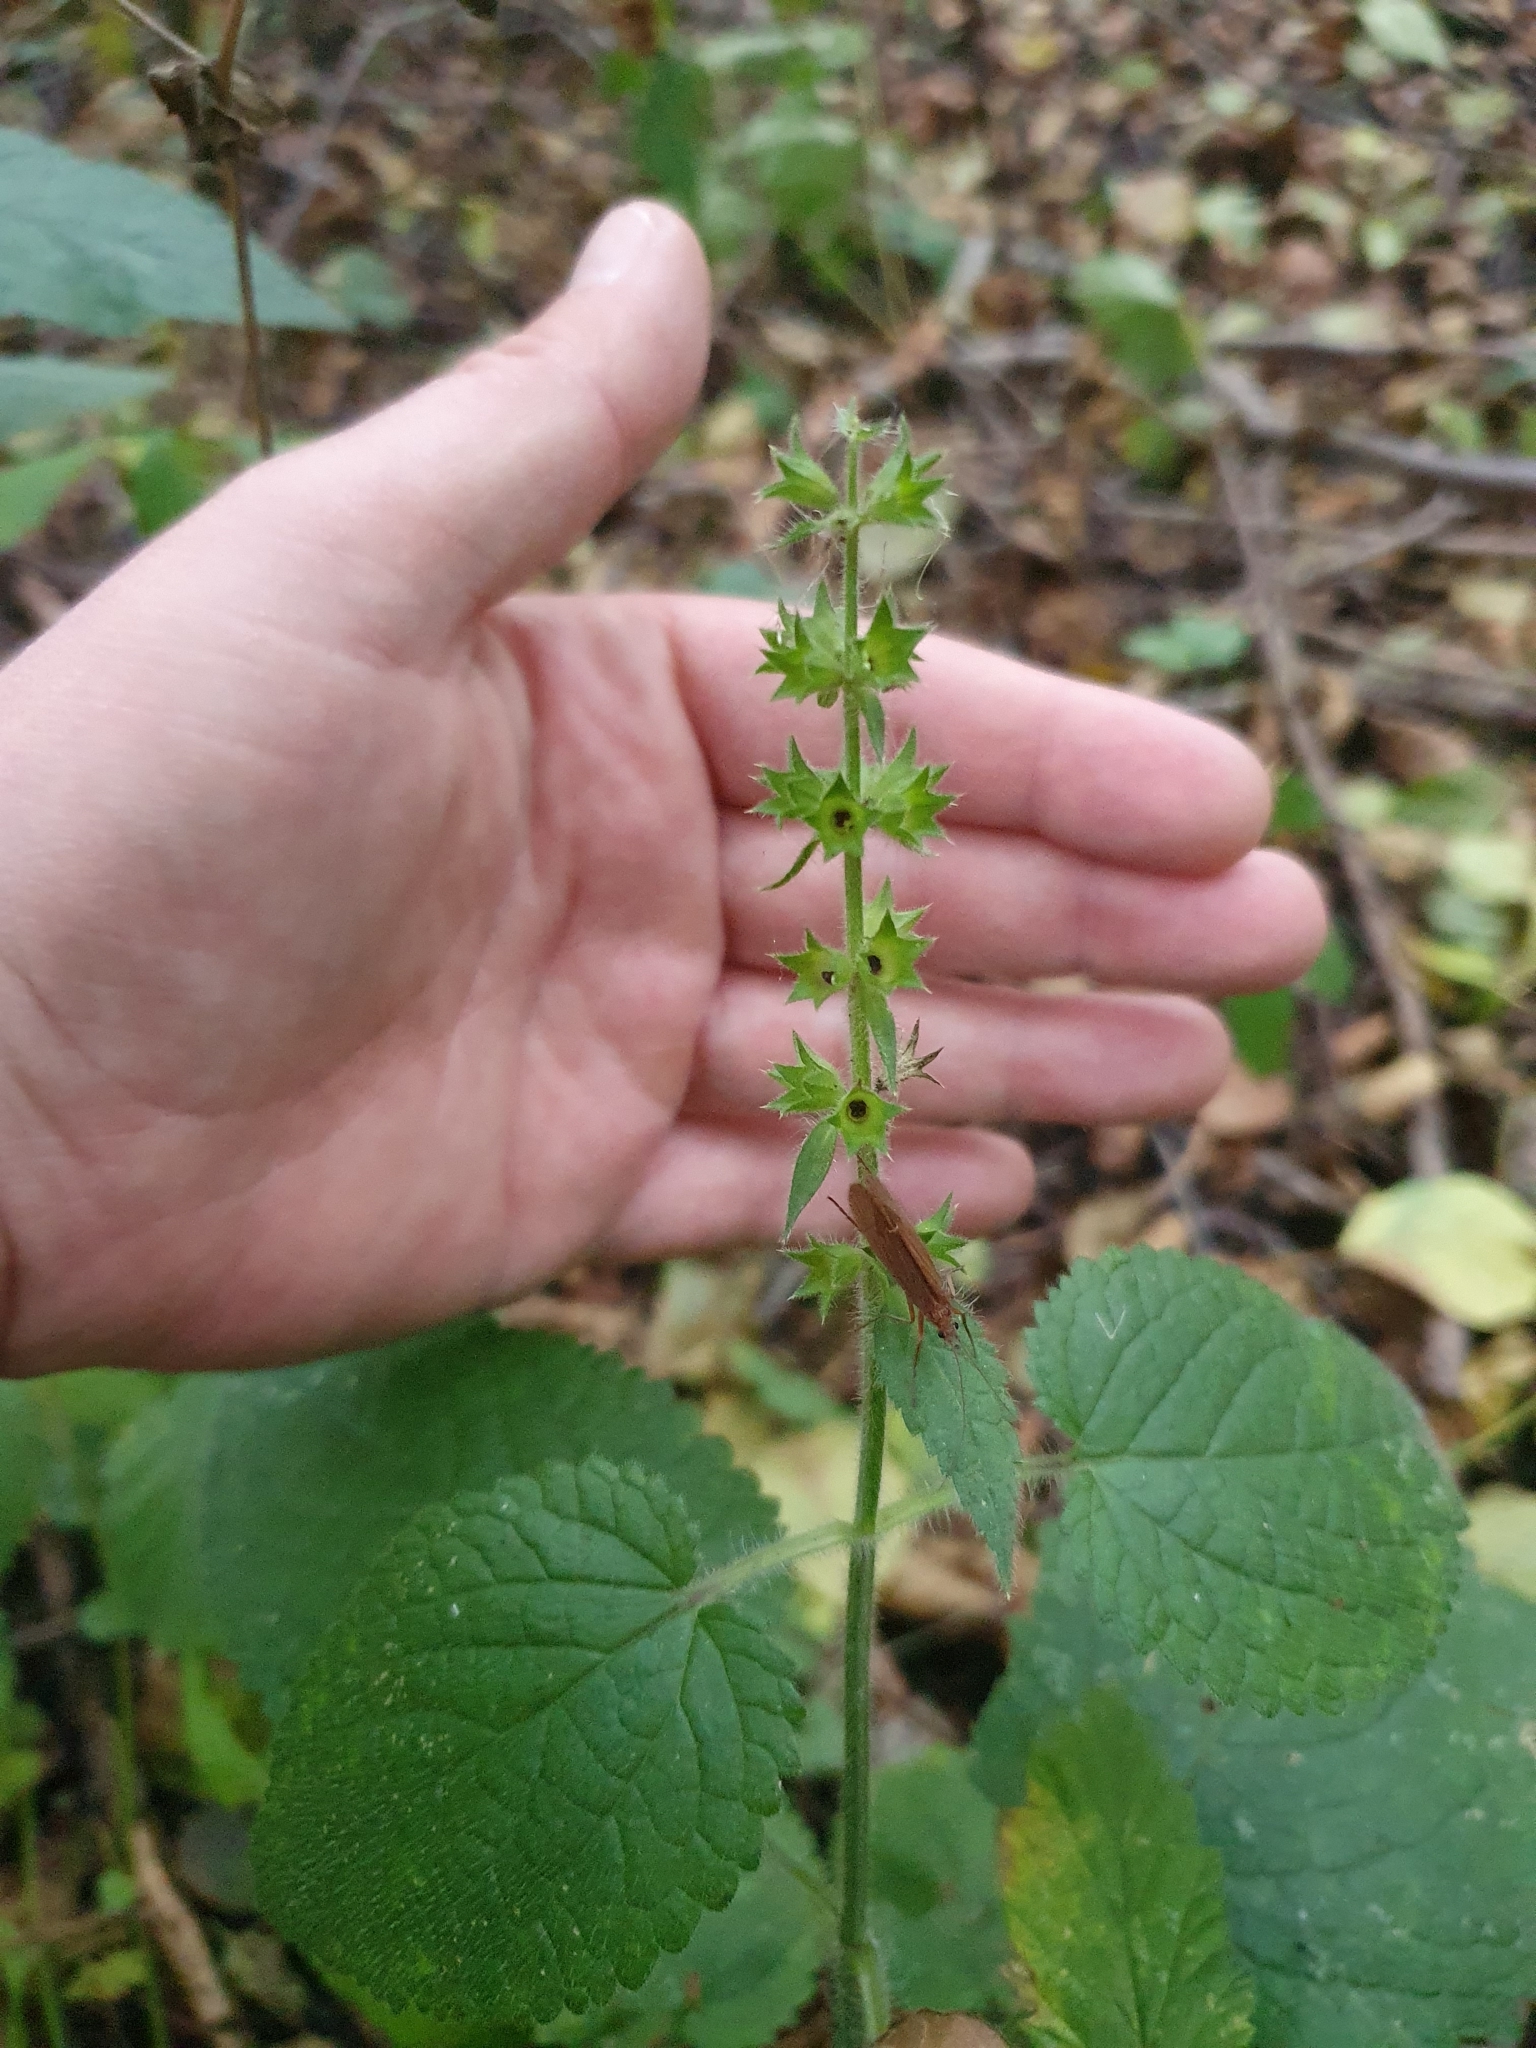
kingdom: Plantae
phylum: Tracheophyta
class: Magnoliopsida
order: Lamiales
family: Lamiaceae
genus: Stachys
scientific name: Stachys sylvatica
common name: Hedge woundwort
